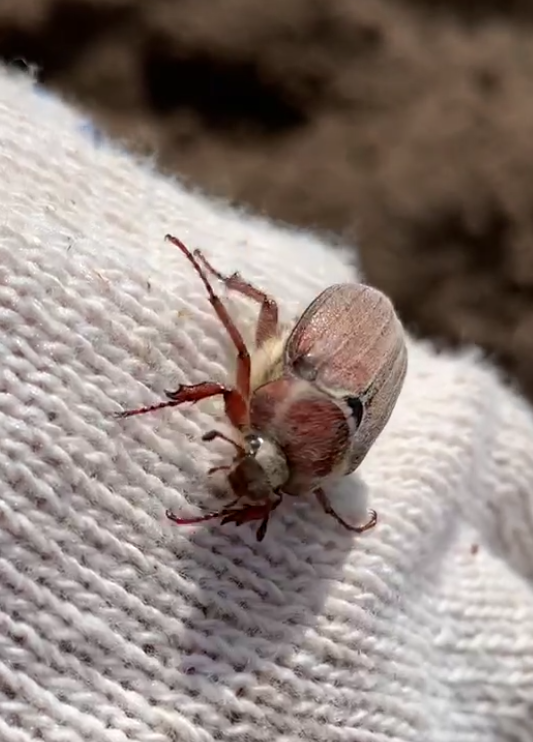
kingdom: Animalia
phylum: Arthropoda
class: Insecta
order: Coleoptera
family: Scarabaeidae
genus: Melolontha
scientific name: Melolontha hippocastani
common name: Chestnut cockchafer
